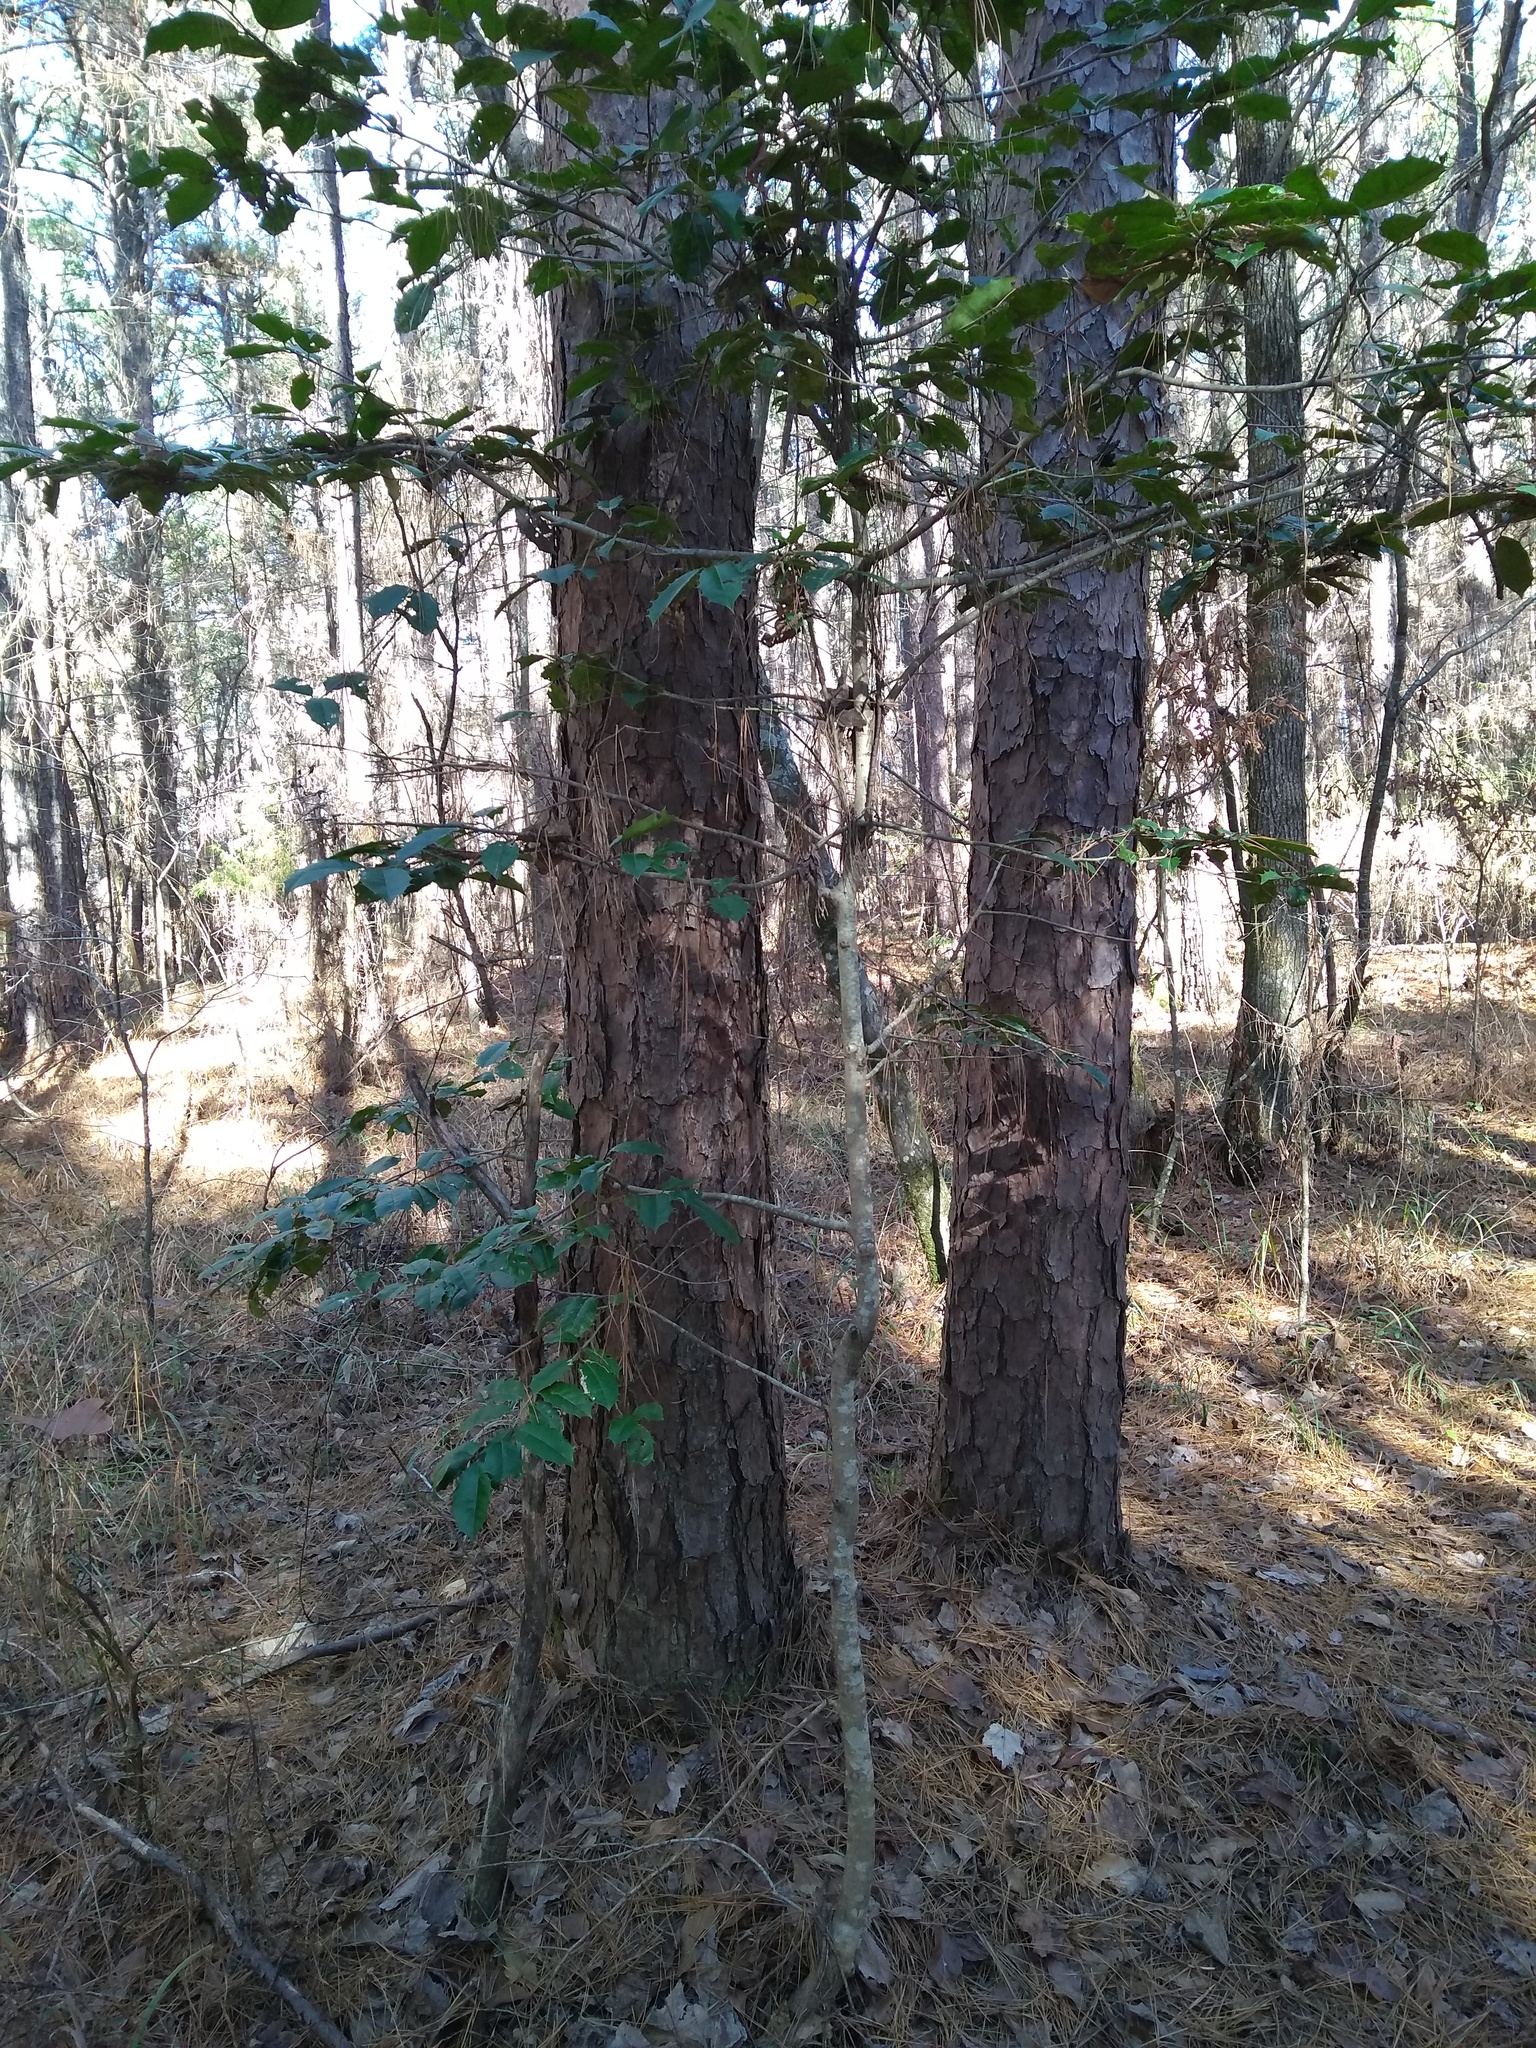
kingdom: Plantae
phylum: Tracheophyta
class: Magnoliopsida
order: Aquifoliales
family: Aquifoliaceae
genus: Ilex
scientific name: Ilex opaca
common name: American holly
